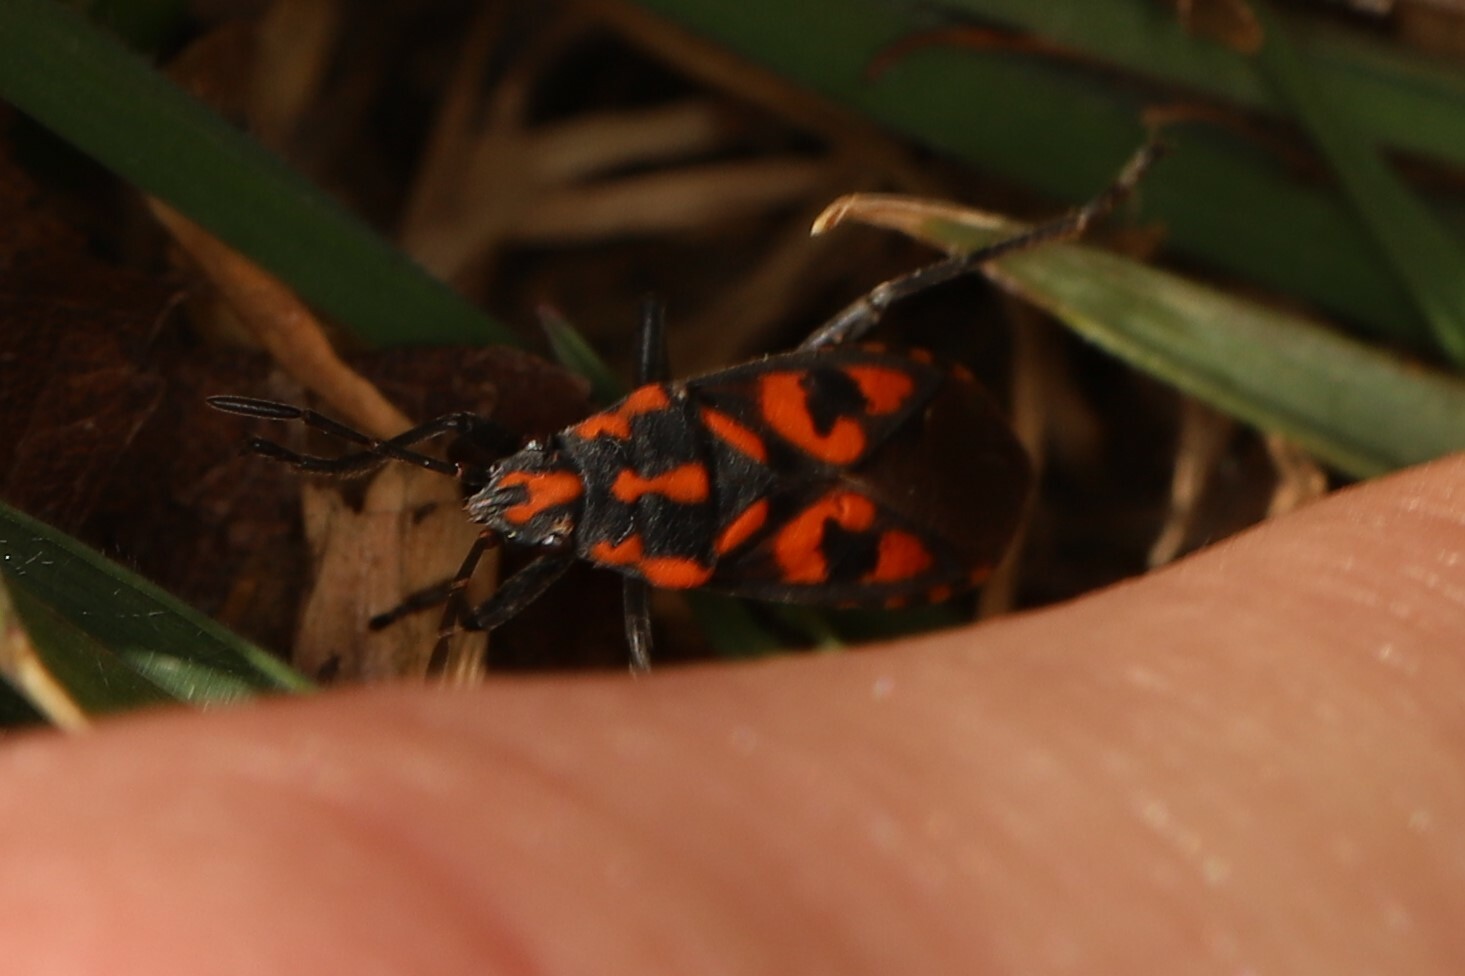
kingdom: Animalia
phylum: Arthropoda
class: Insecta
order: Hemiptera
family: Lygaeidae
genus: Spilostethus
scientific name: Spilostethus saxatilis
